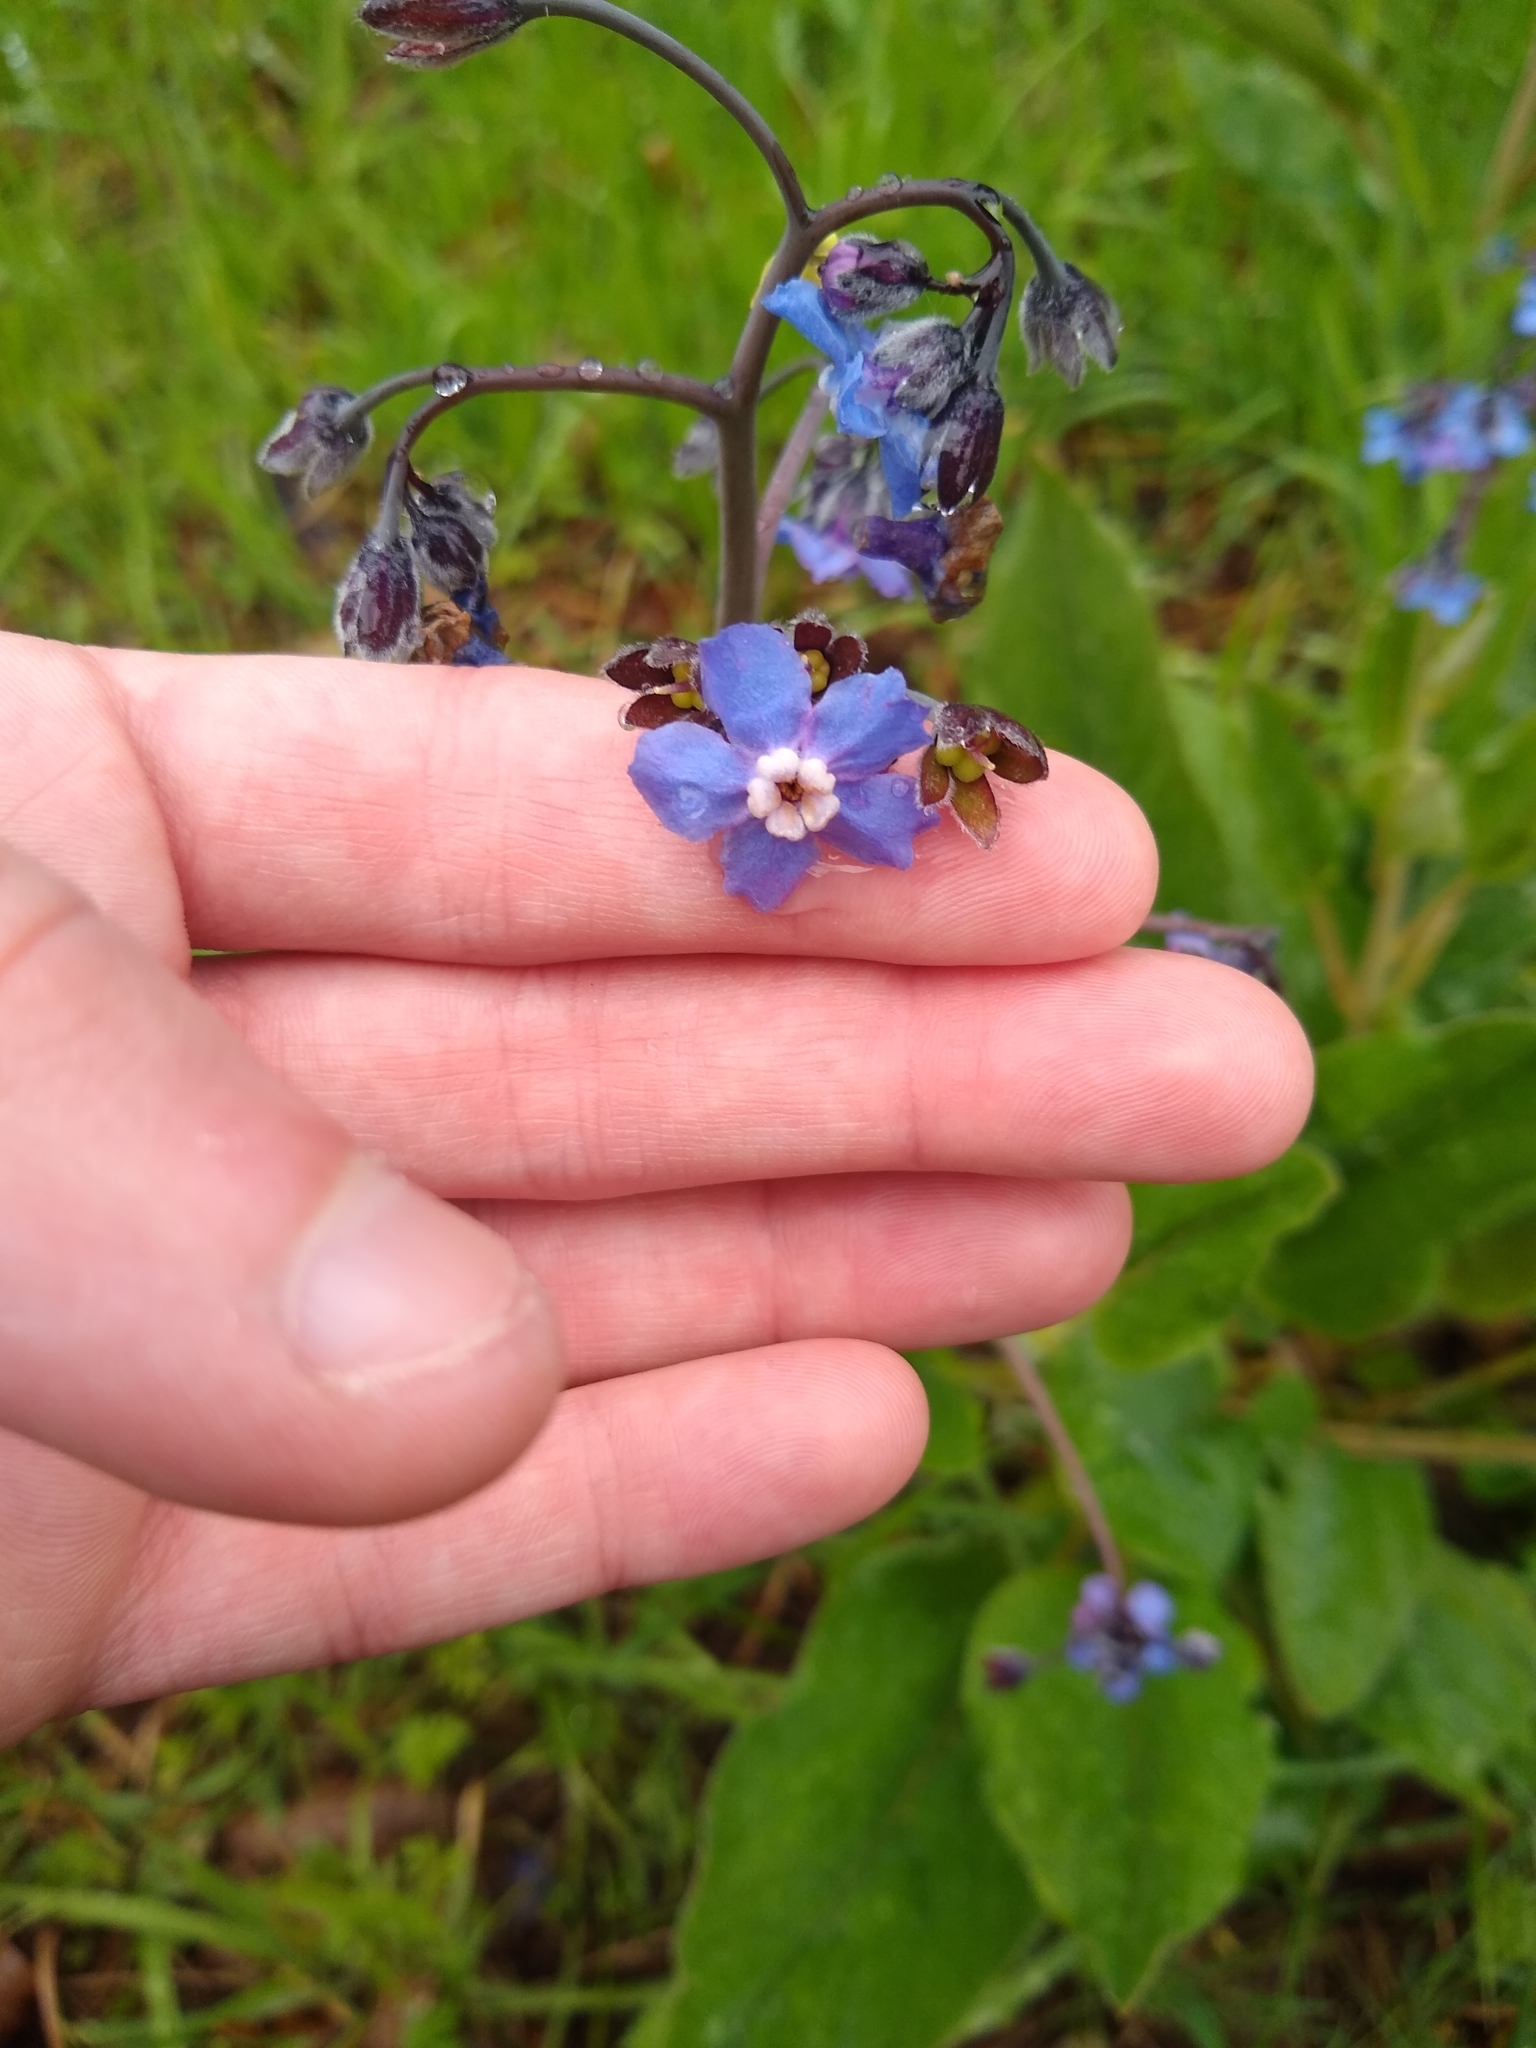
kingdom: Plantae
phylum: Tracheophyta
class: Magnoliopsida
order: Boraginales
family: Boraginaceae
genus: Adelinia
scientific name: Adelinia grande
